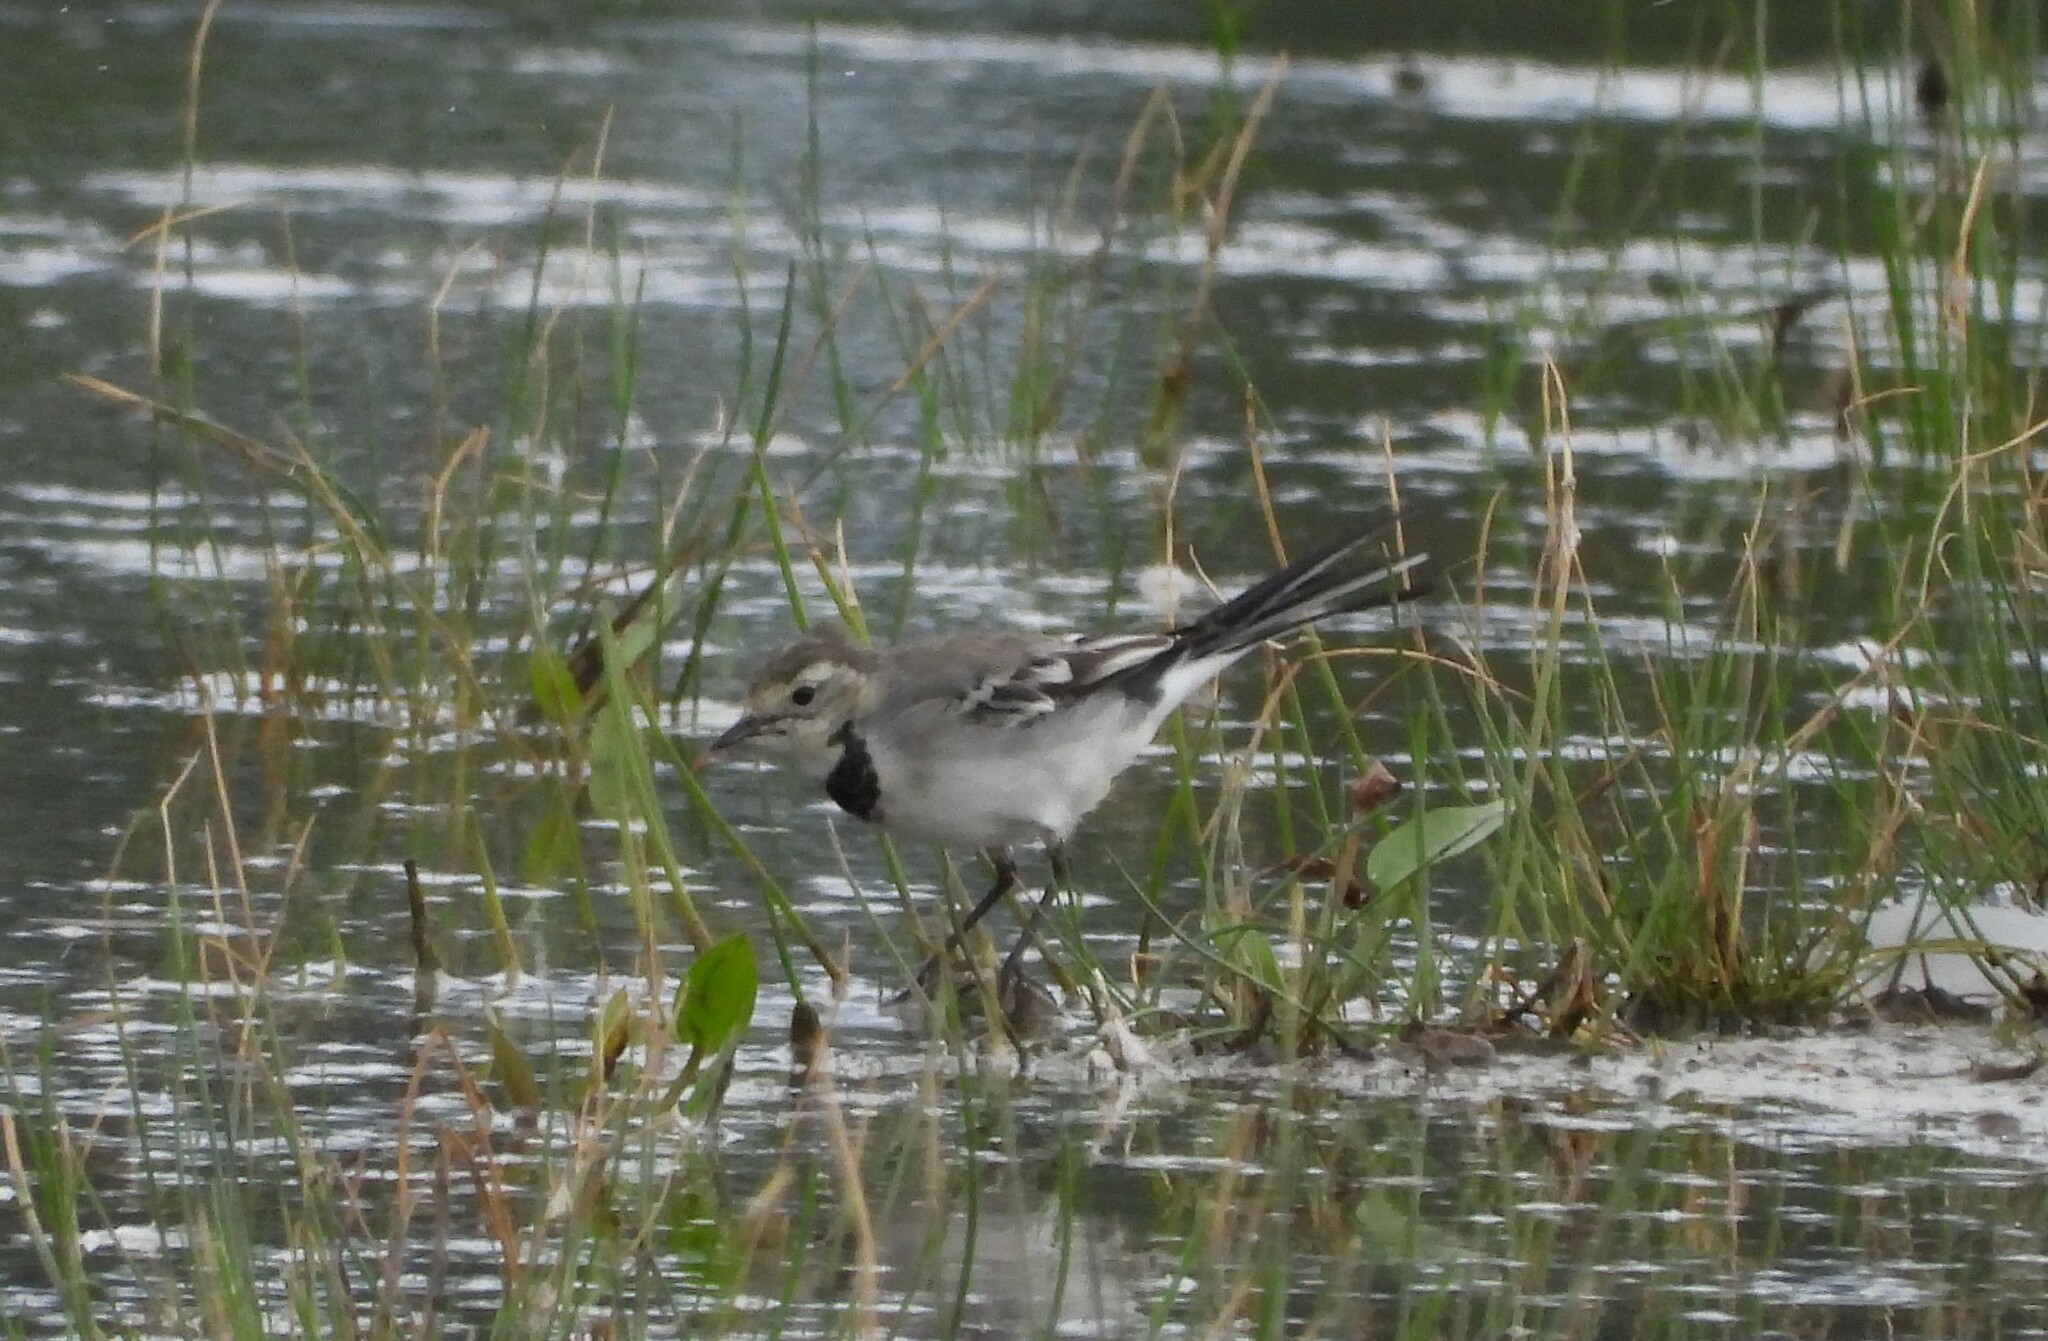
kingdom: Animalia
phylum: Chordata
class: Aves
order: Passeriformes
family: Motacillidae
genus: Motacilla
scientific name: Motacilla alba
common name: White wagtail
